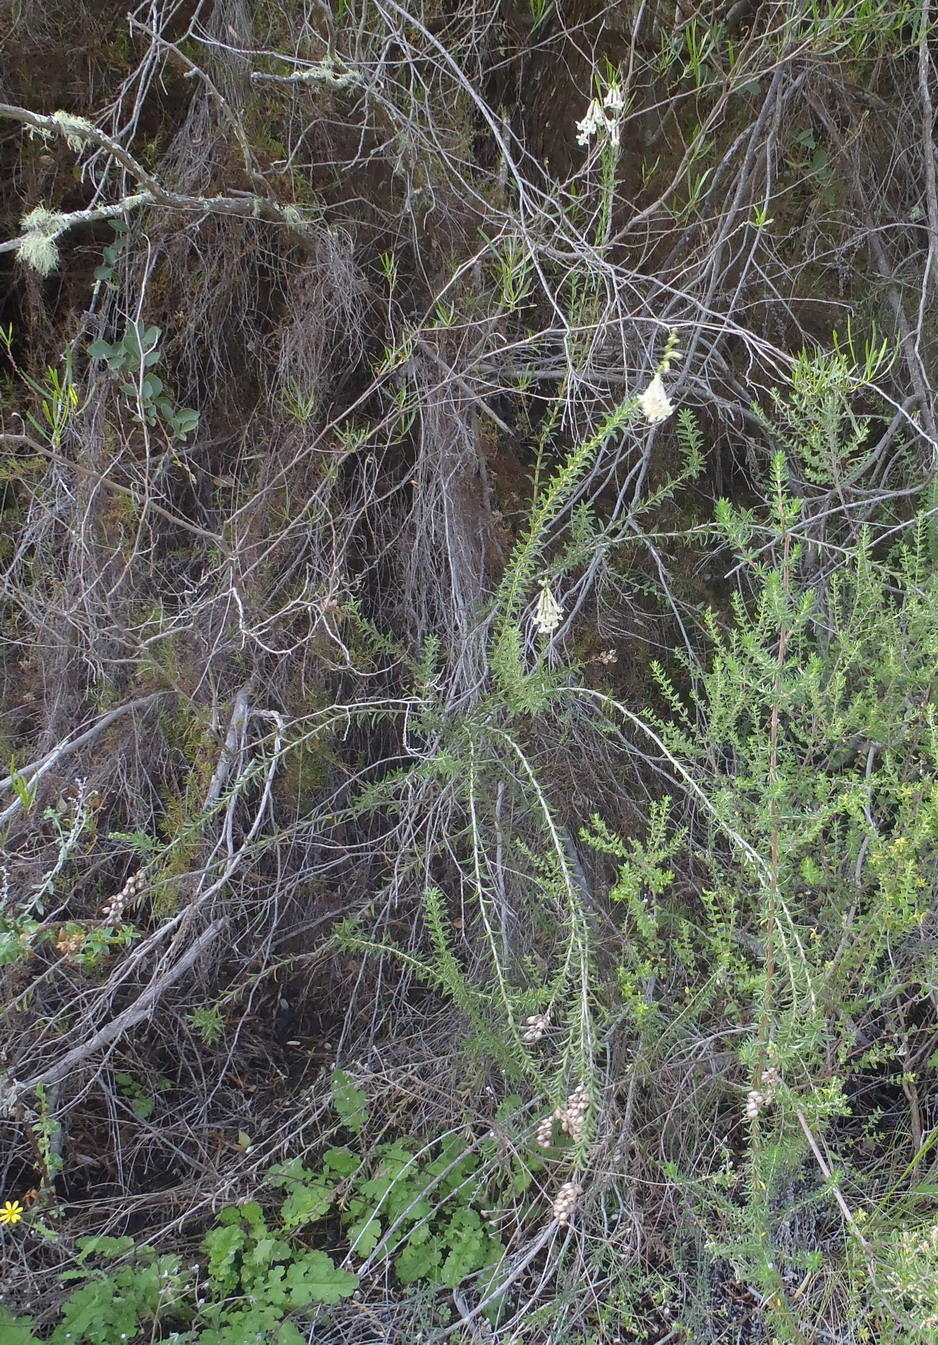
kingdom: Plantae
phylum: Tracheophyta
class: Magnoliopsida
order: Lamiales
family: Scrophulariaceae
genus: Freylinia
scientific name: Freylinia densiflora
